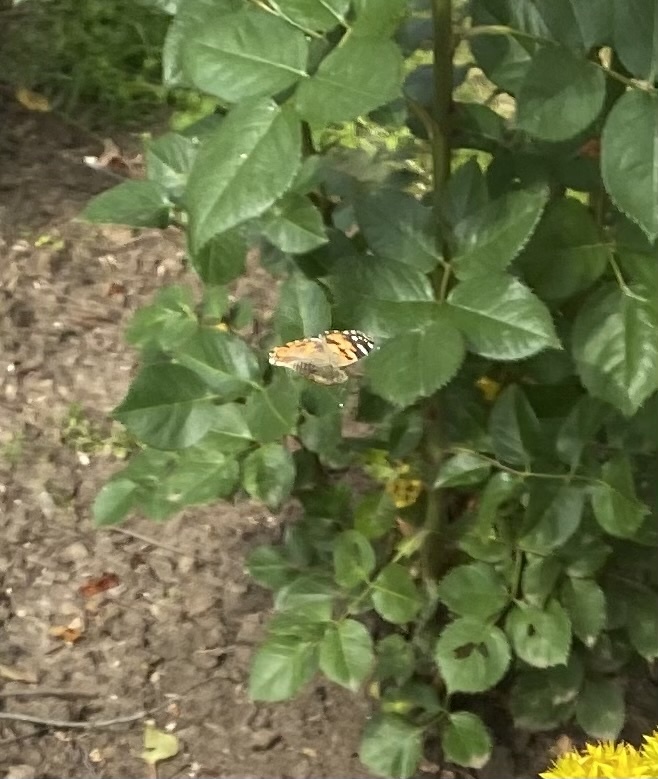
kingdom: Animalia
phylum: Arthropoda
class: Insecta
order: Lepidoptera
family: Nymphalidae
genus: Vanessa
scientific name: Vanessa cardui
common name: Painted lady
